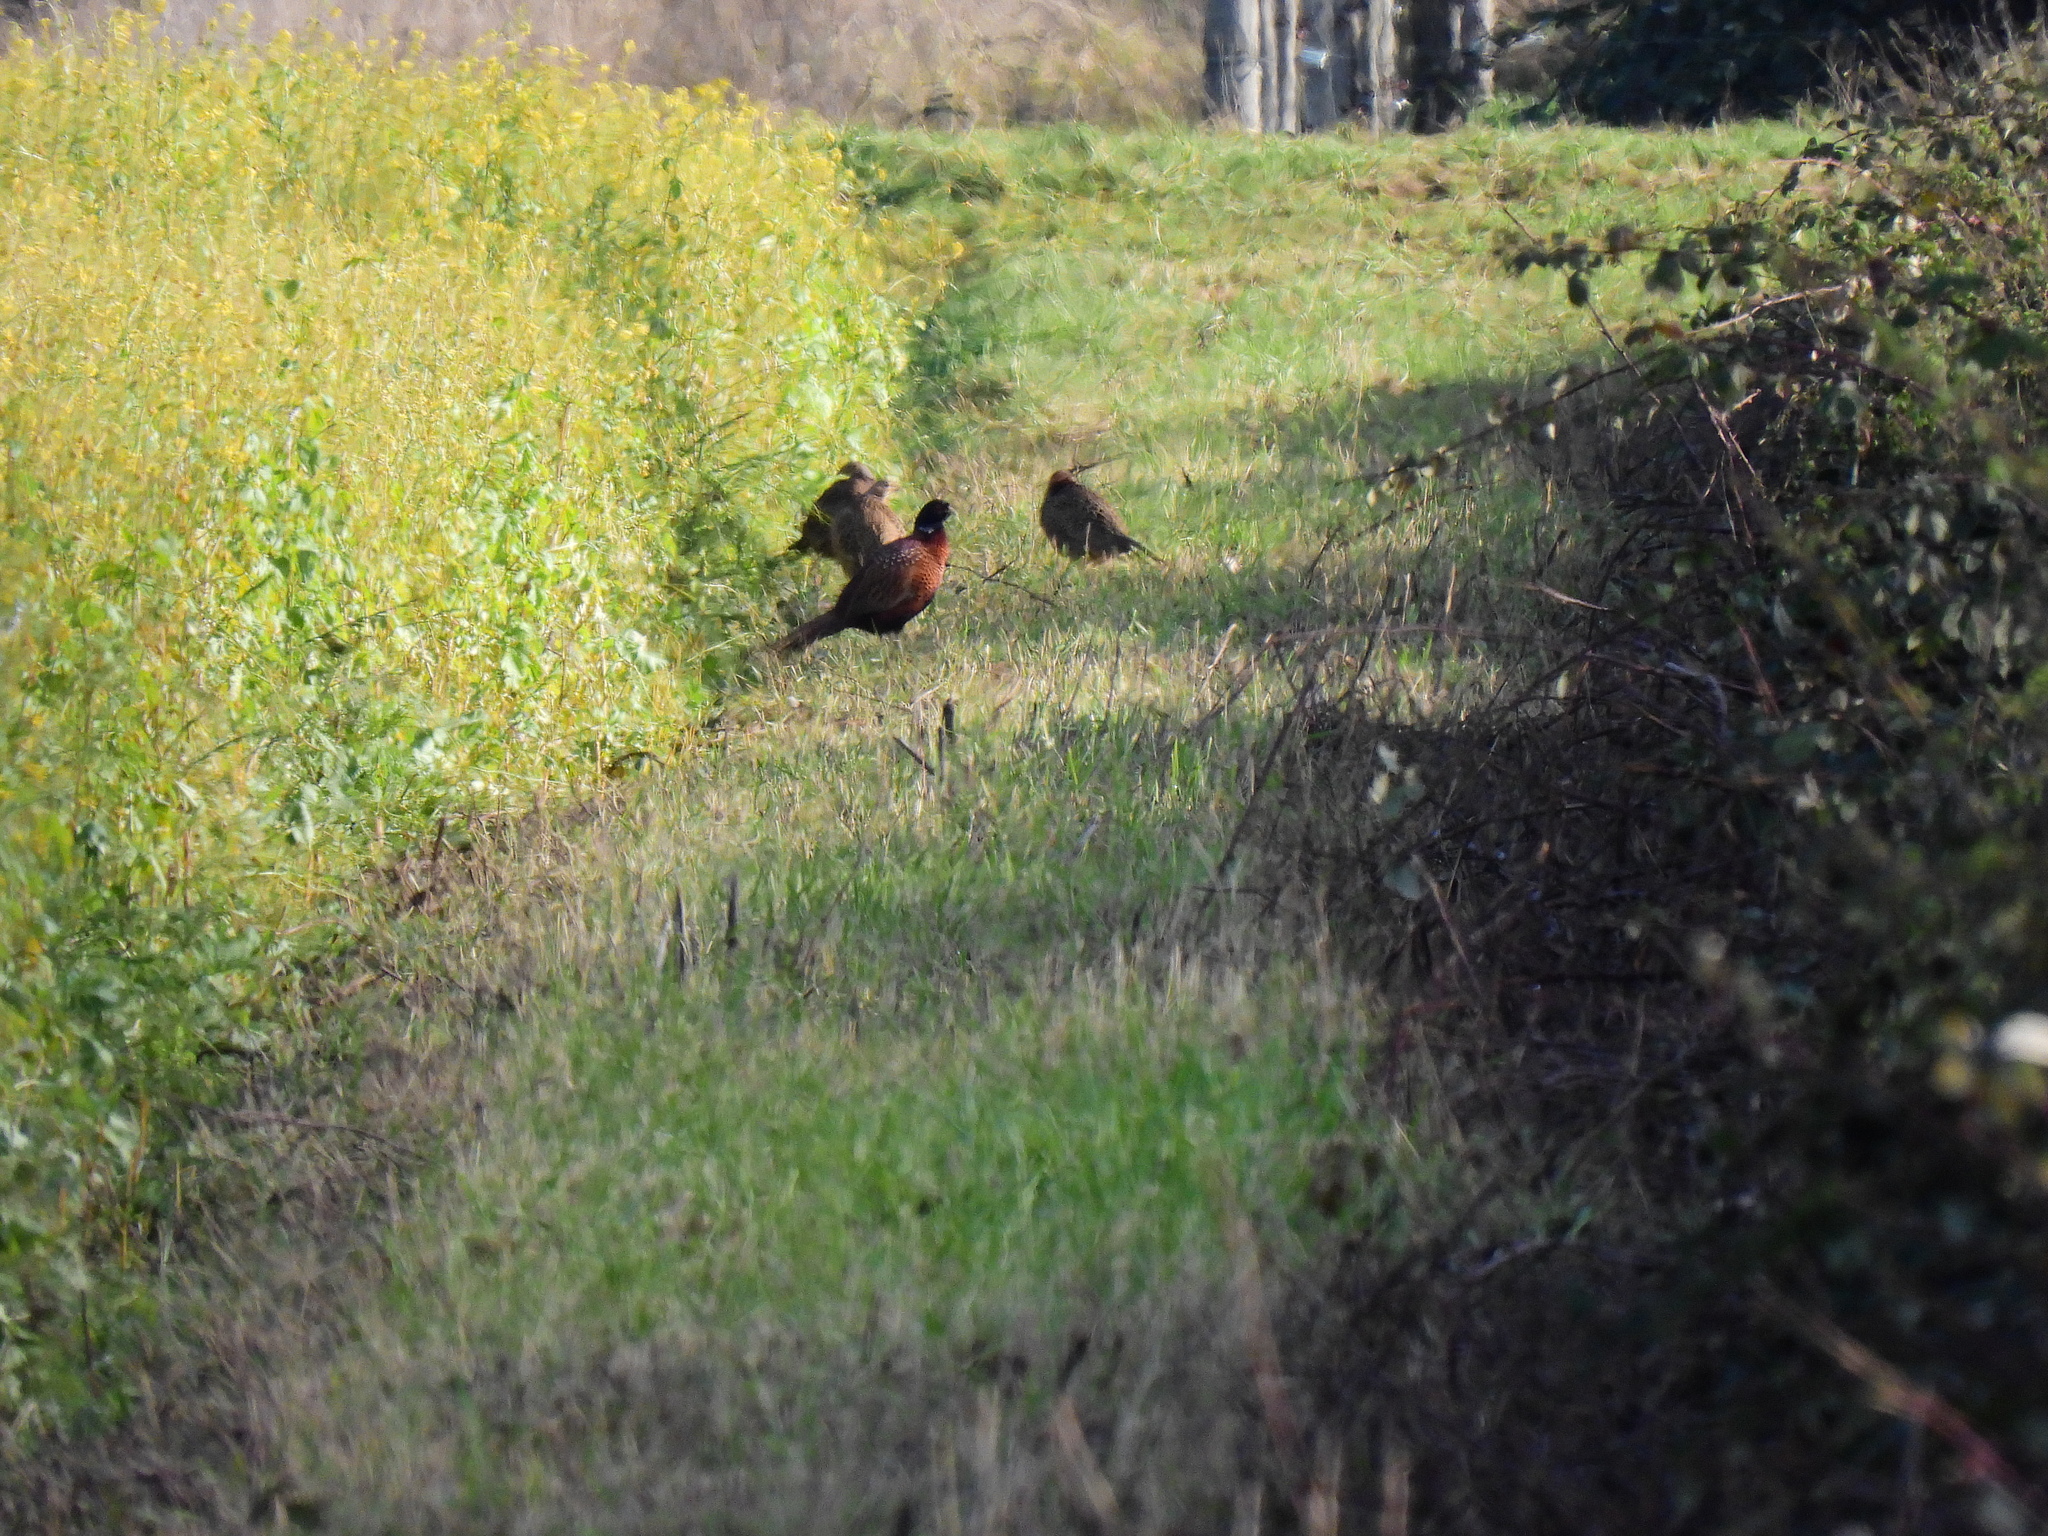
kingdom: Animalia
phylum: Chordata
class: Aves
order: Galliformes
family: Phasianidae
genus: Phasianus
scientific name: Phasianus colchicus
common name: Common pheasant
